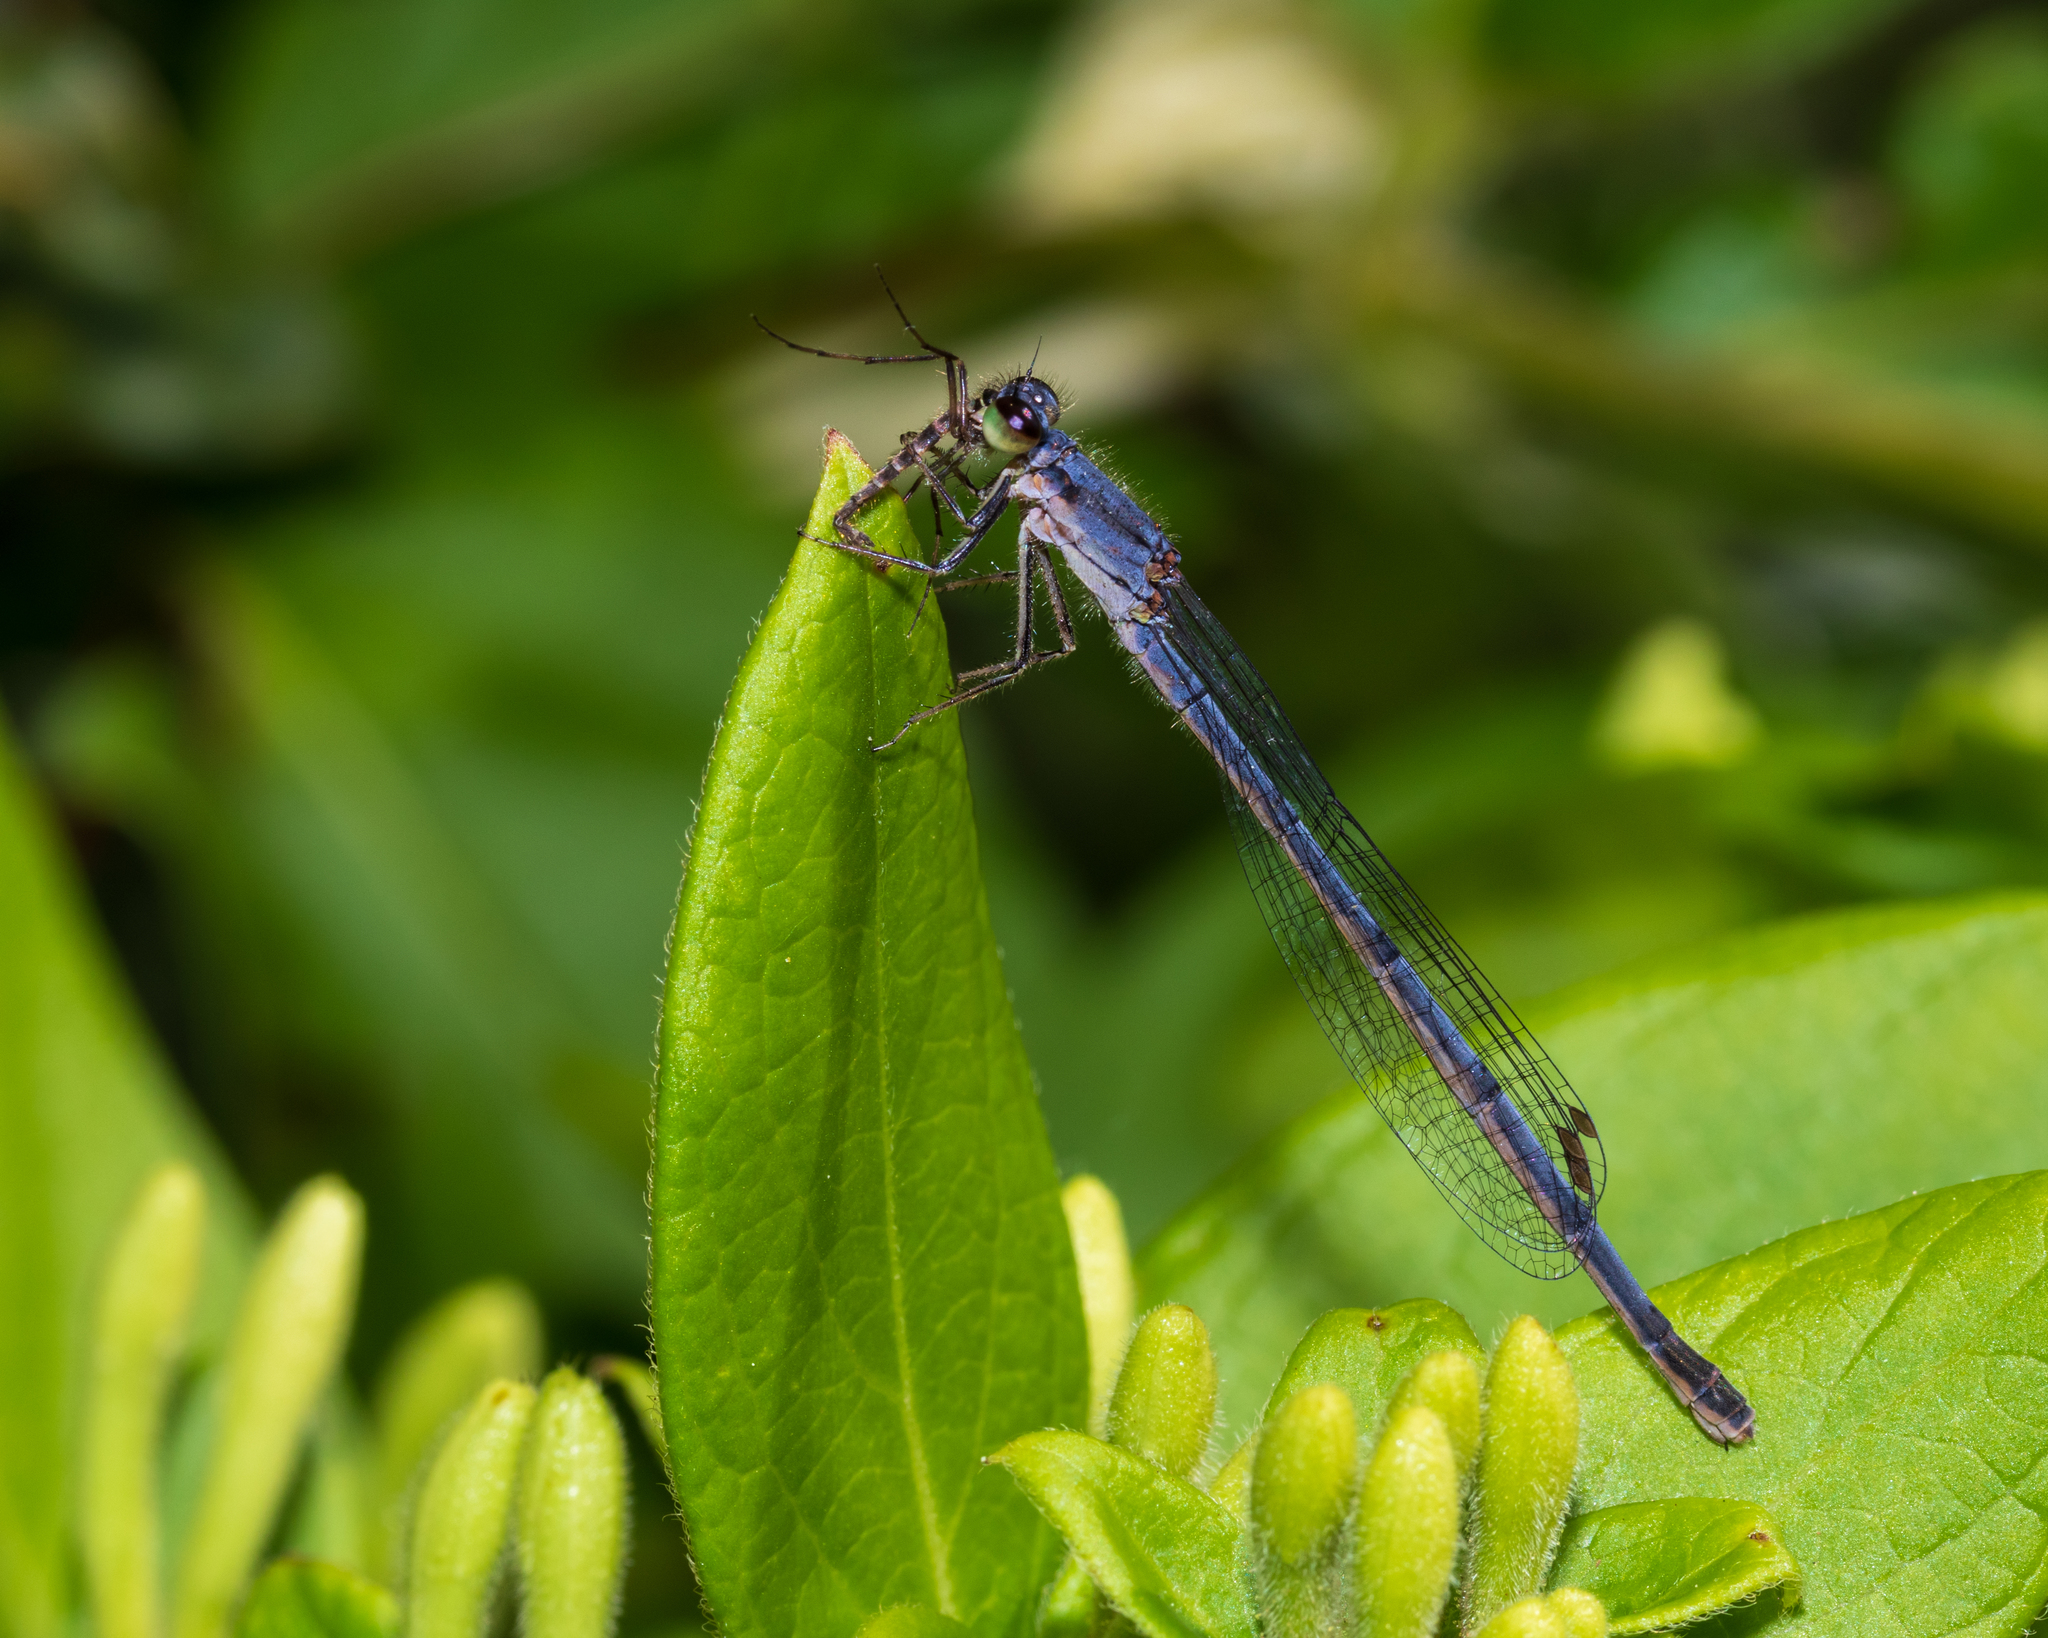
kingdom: Animalia
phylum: Arthropoda
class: Insecta
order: Odonata
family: Coenagrionidae
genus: Ischnura
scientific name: Ischnura posita
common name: Fragile forktail
